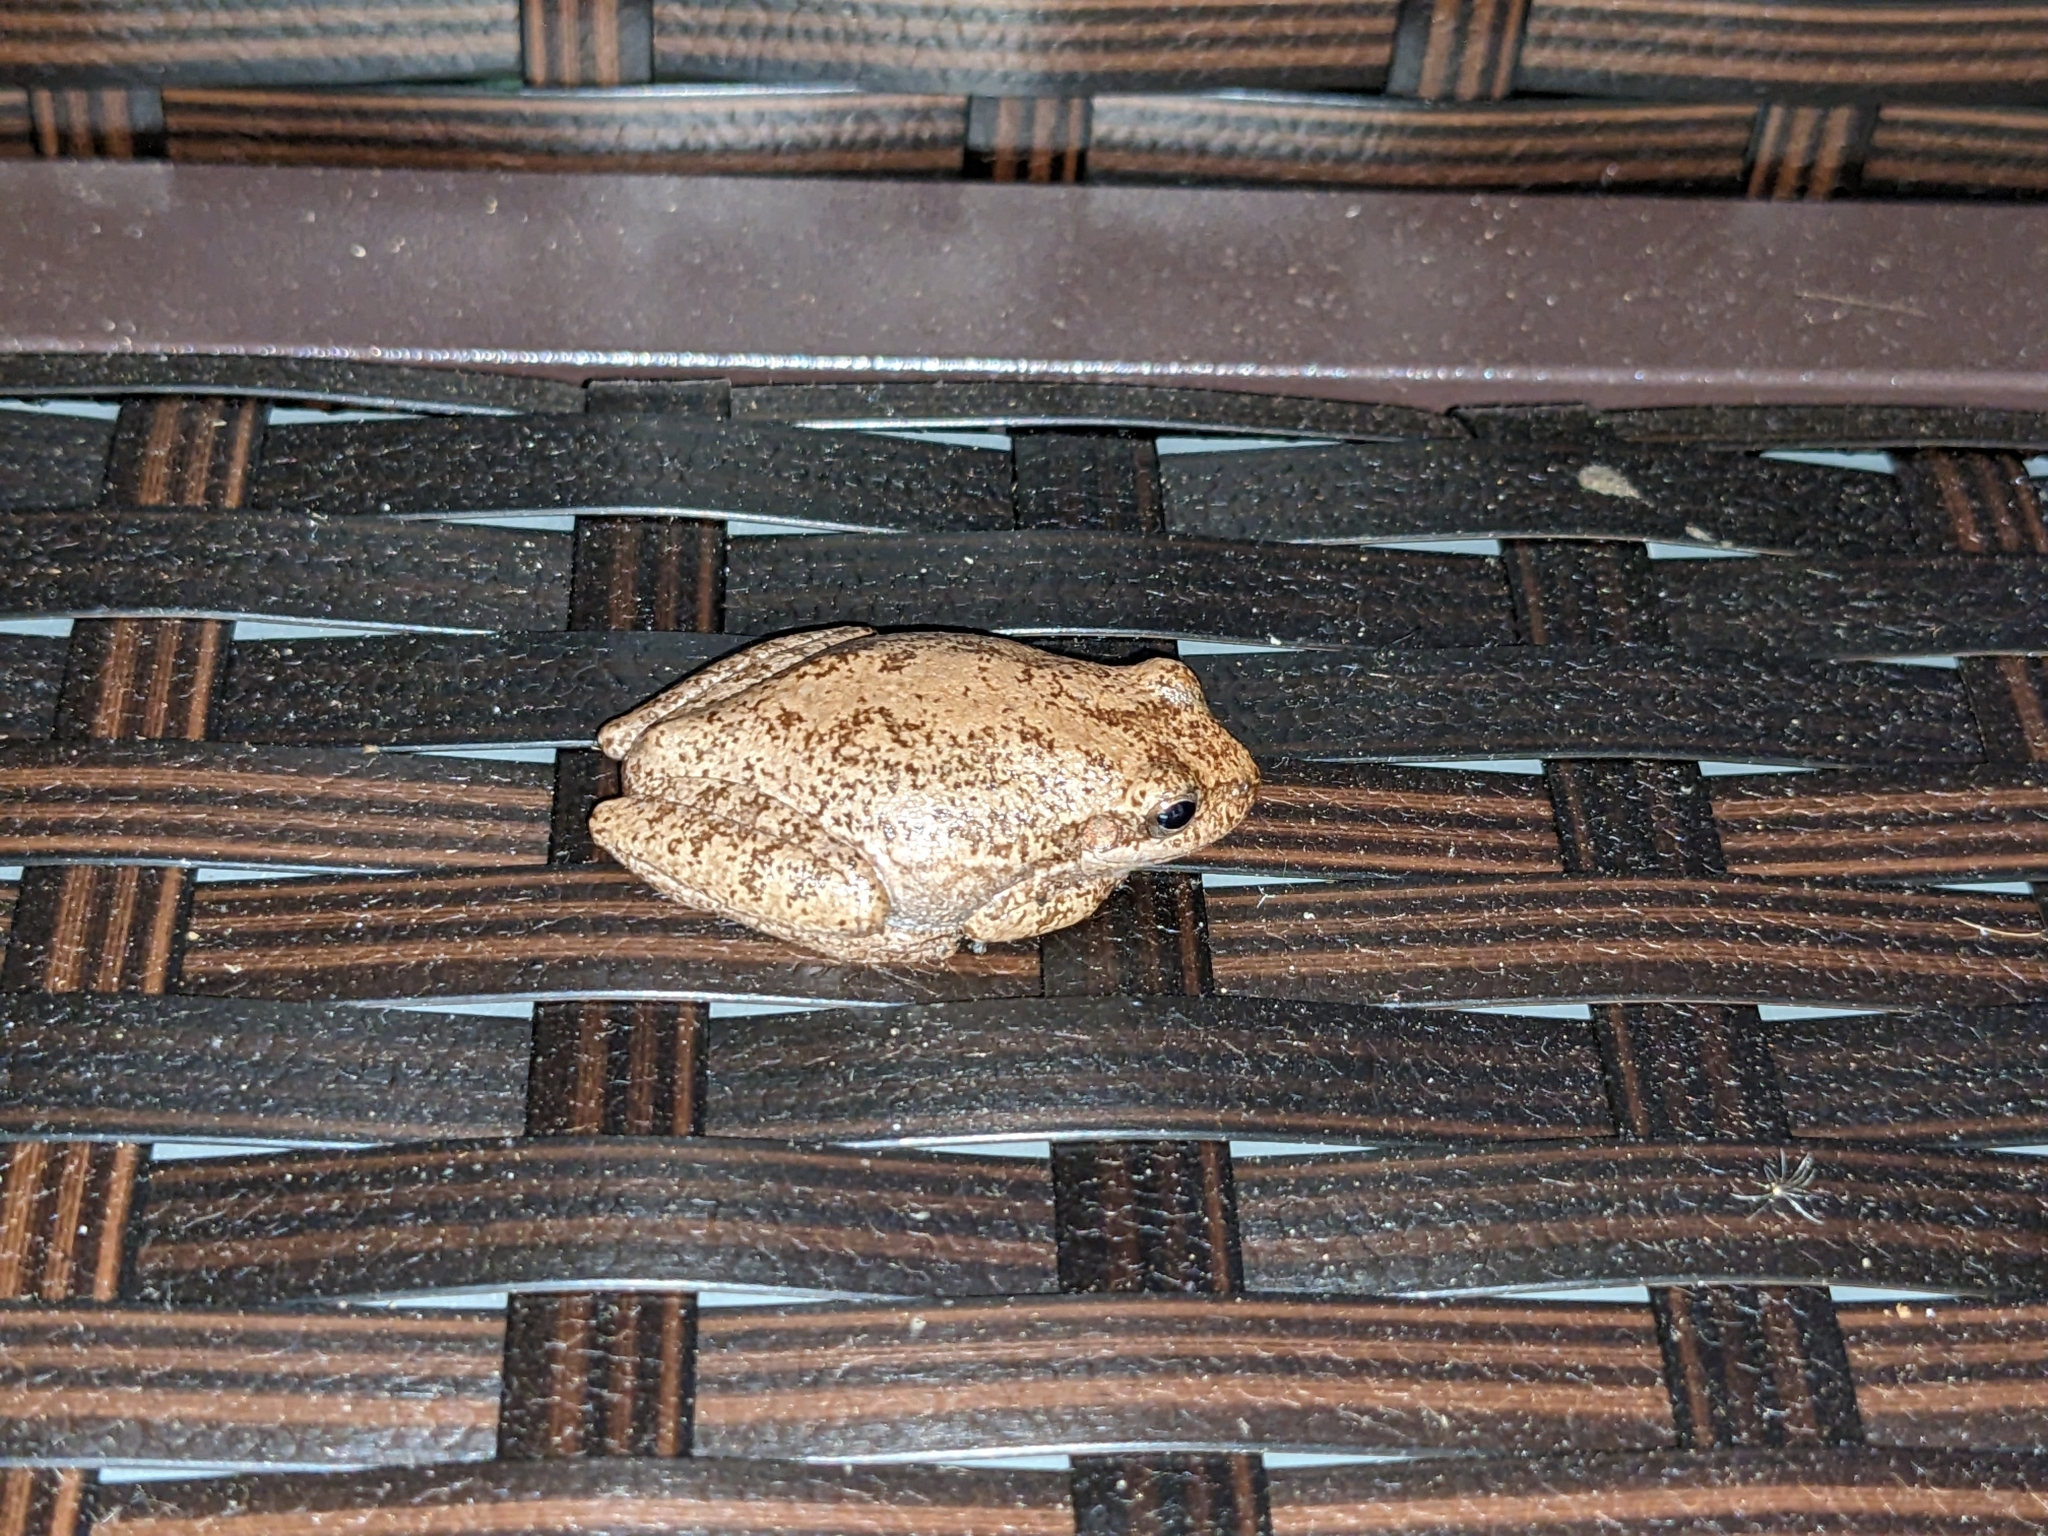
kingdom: Animalia
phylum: Chordata
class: Amphibia
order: Anura
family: Hylidae
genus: Dryophytes
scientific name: Dryophytes squirellus
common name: Squirrel treefrog
